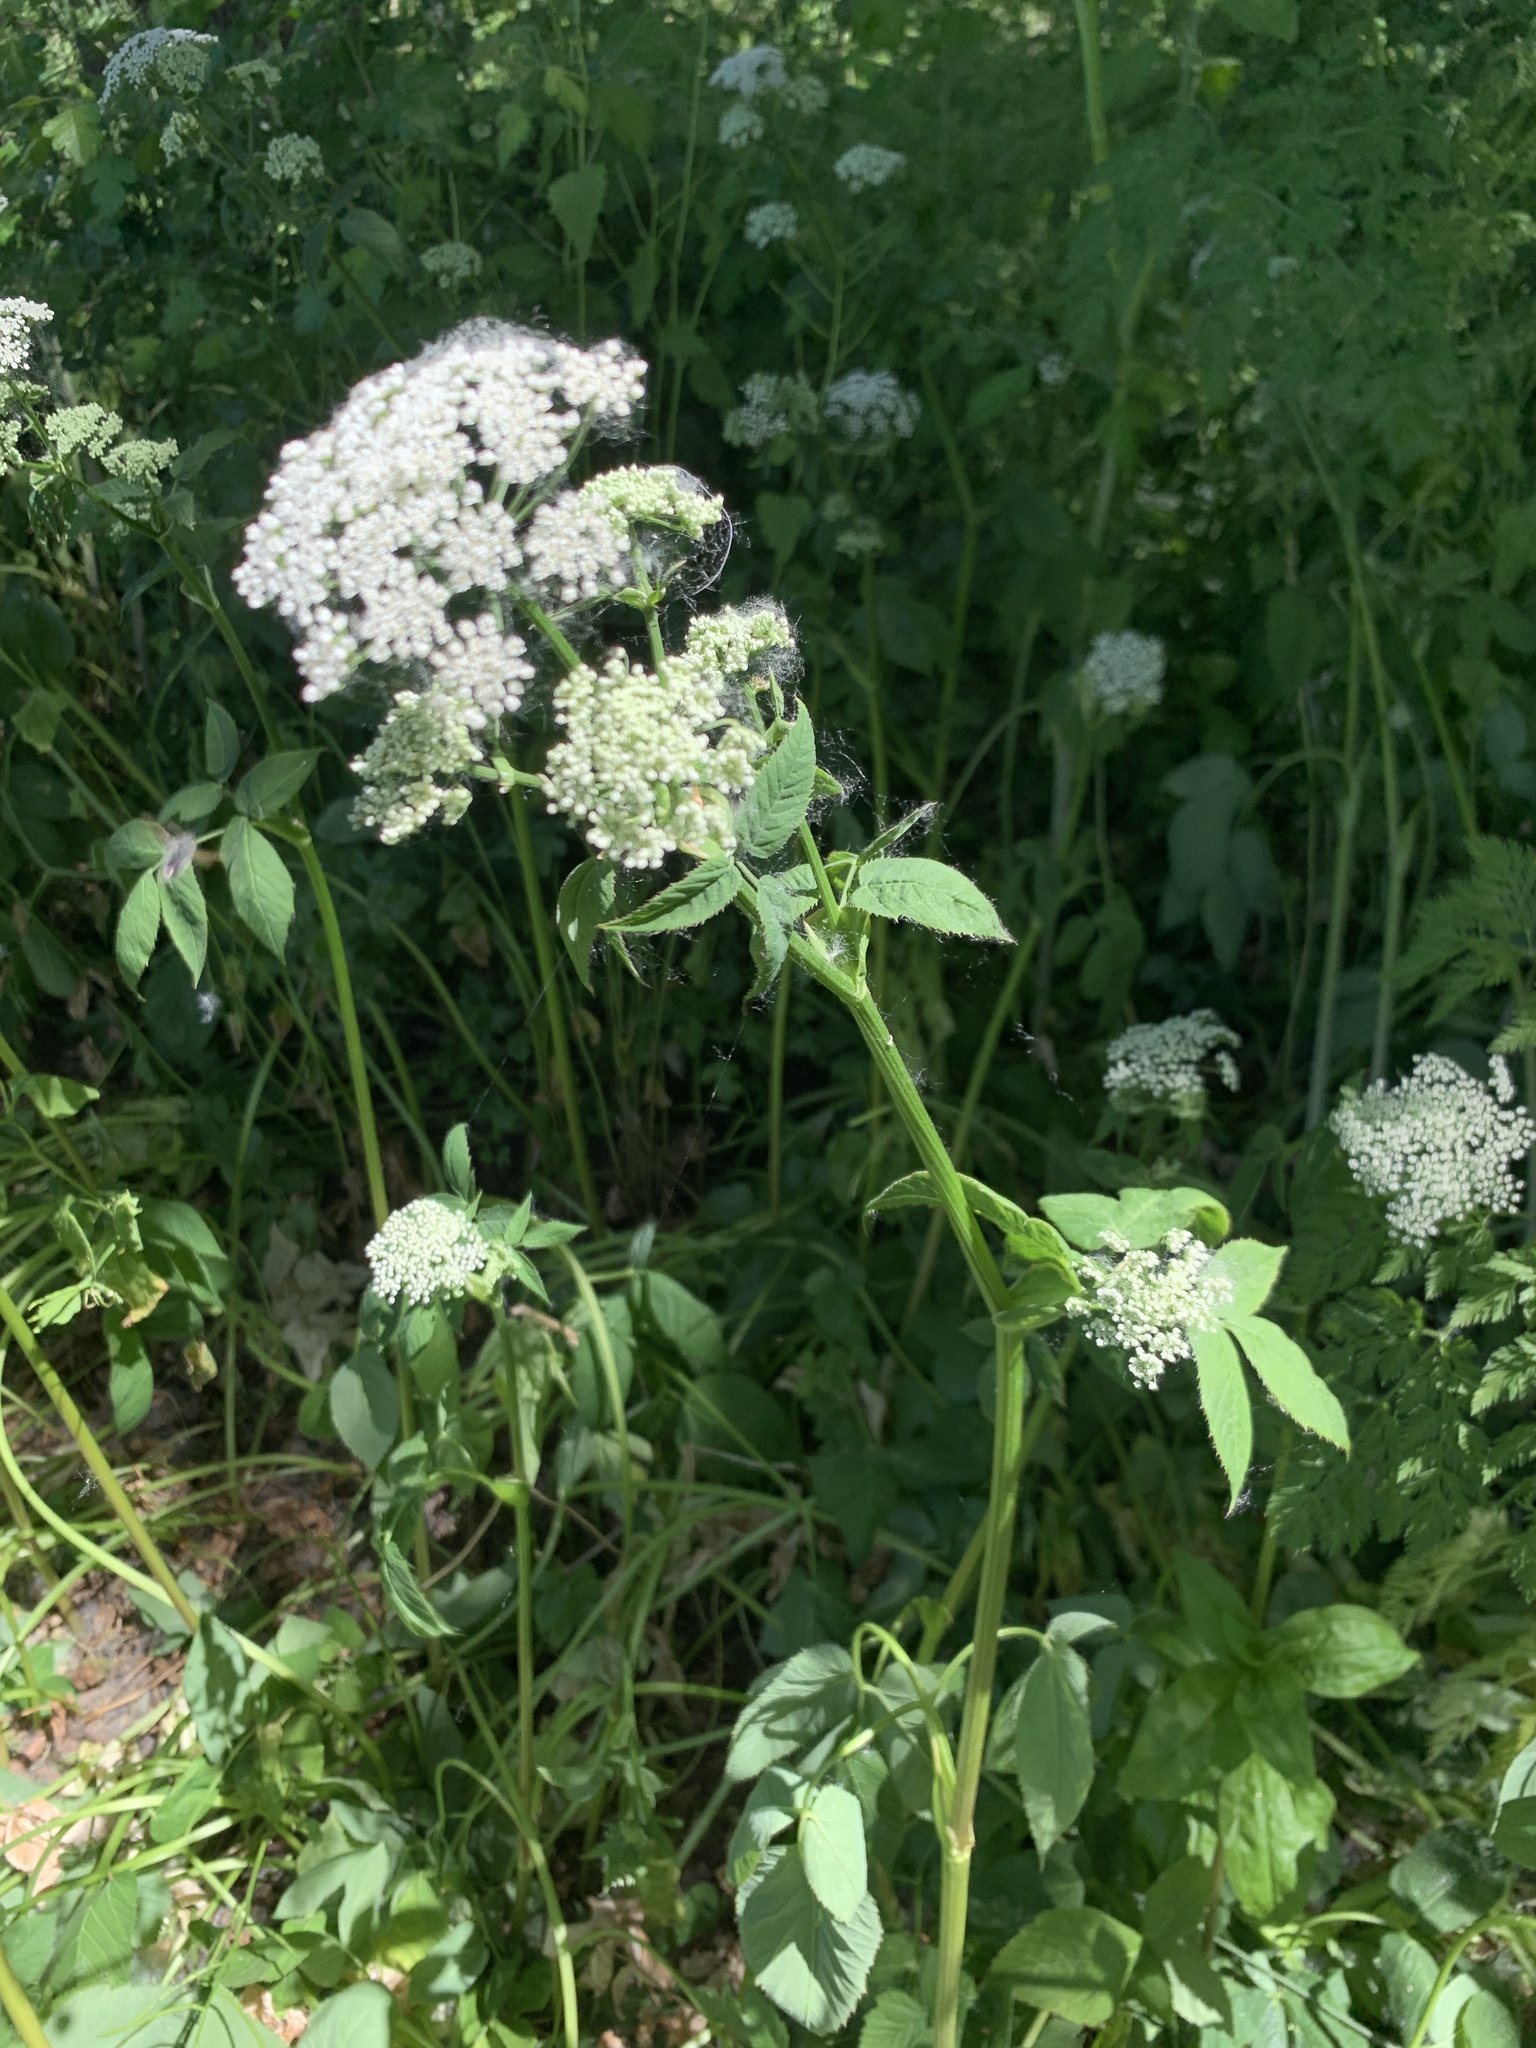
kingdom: Plantae
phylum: Tracheophyta
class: Magnoliopsida
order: Apiales
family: Apiaceae
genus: Aegopodium
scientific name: Aegopodium podagraria
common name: Ground-elder
